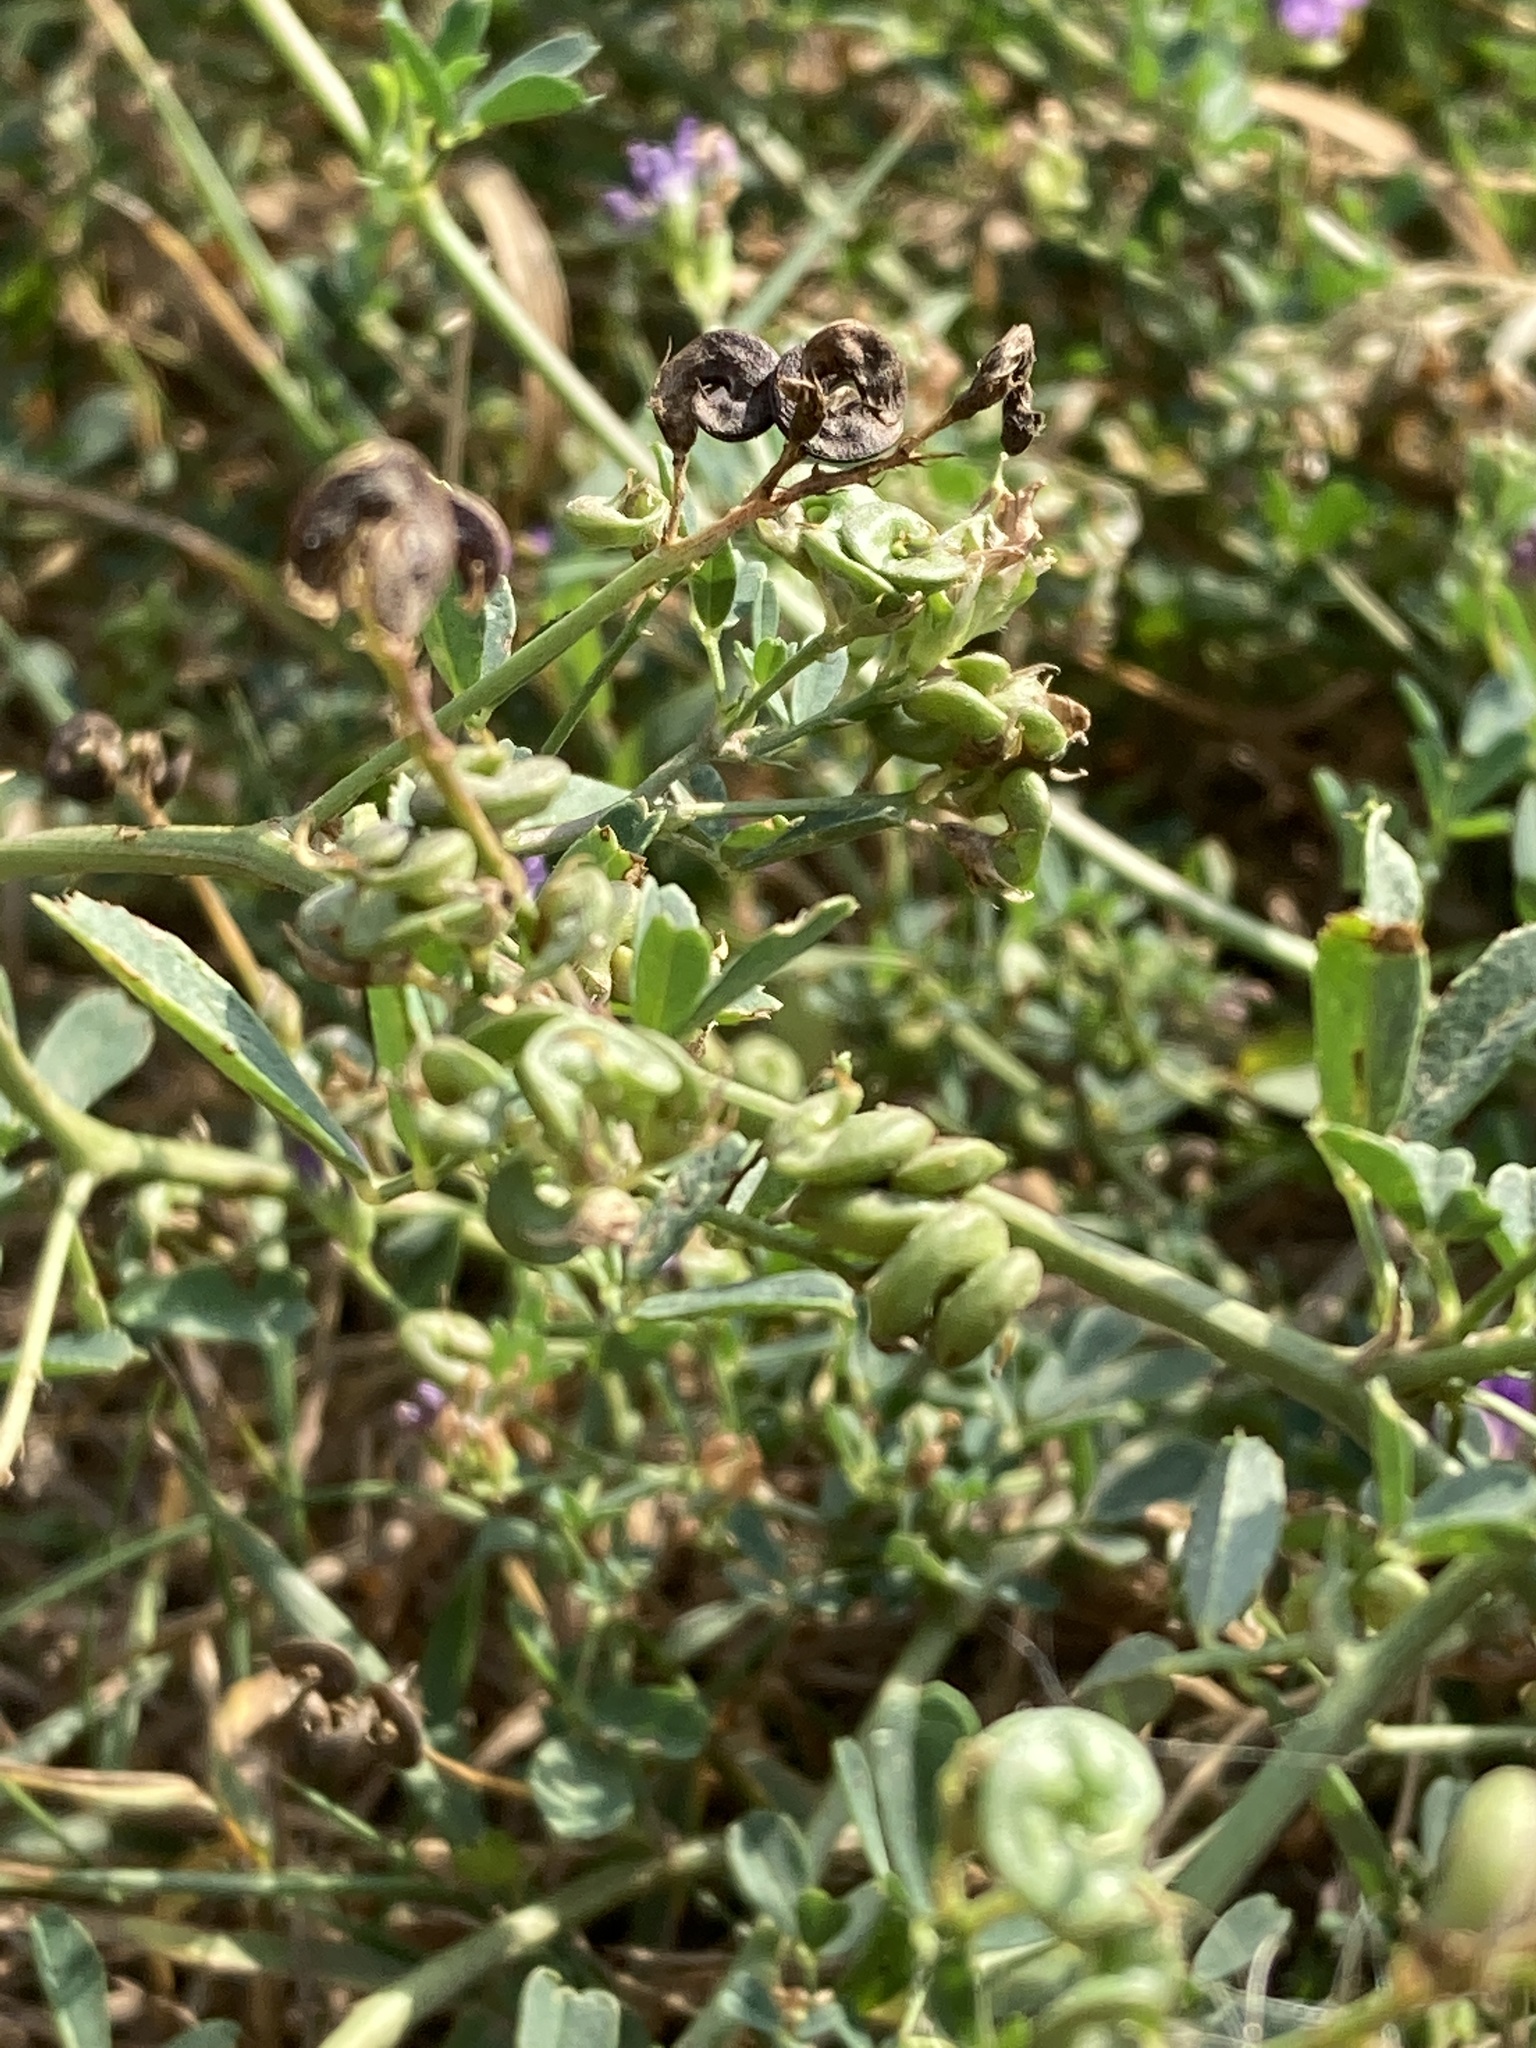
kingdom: Plantae
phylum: Tracheophyta
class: Magnoliopsida
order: Fabales
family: Fabaceae
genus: Medicago
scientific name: Medicago sativa
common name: Alfalfa
